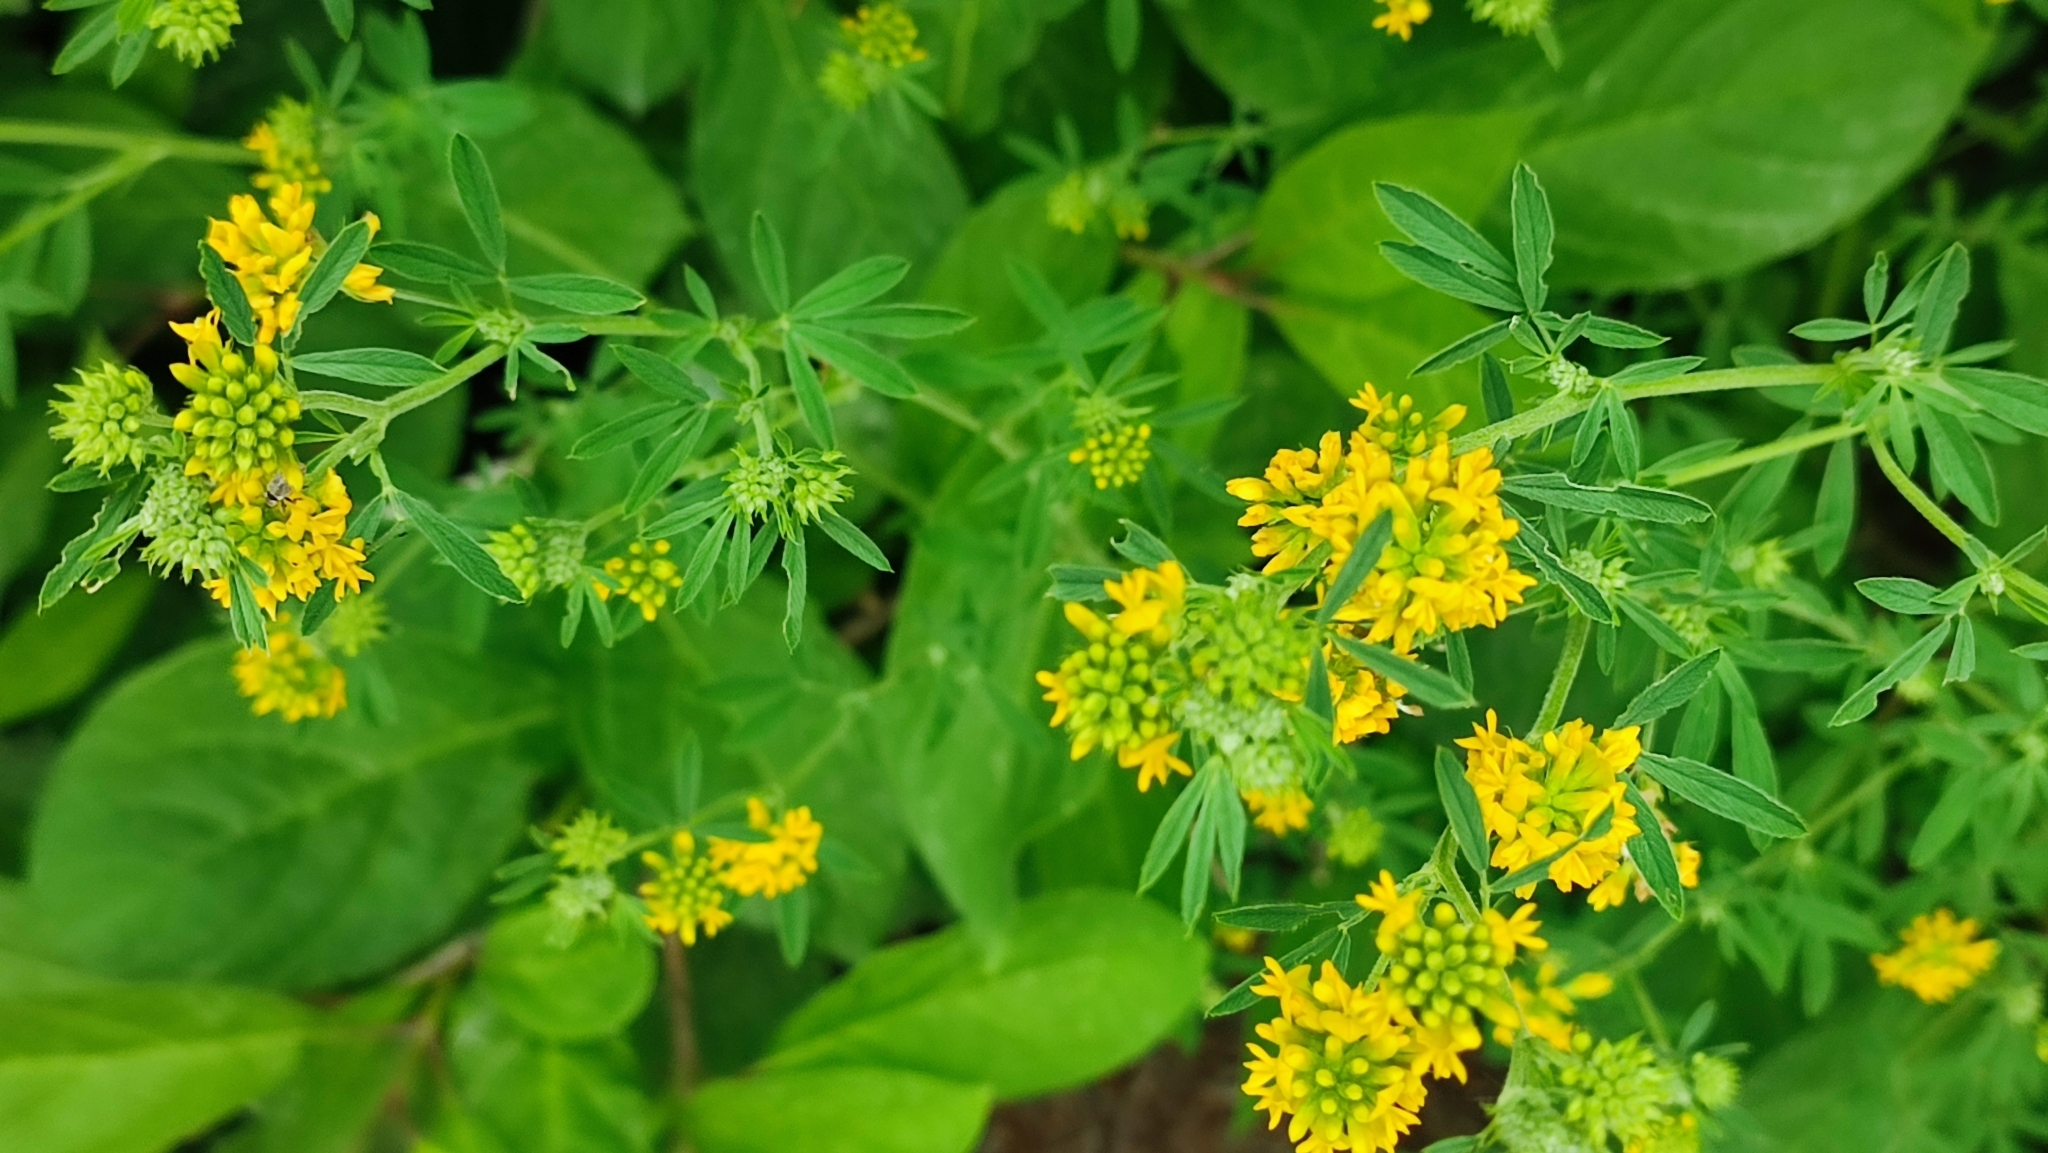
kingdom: Plantae
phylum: Tracheophyta
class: Magnoliopsida
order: Fabales
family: Fabaceae
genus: Medicago
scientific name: Medicago falcata
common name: Sickle medick
